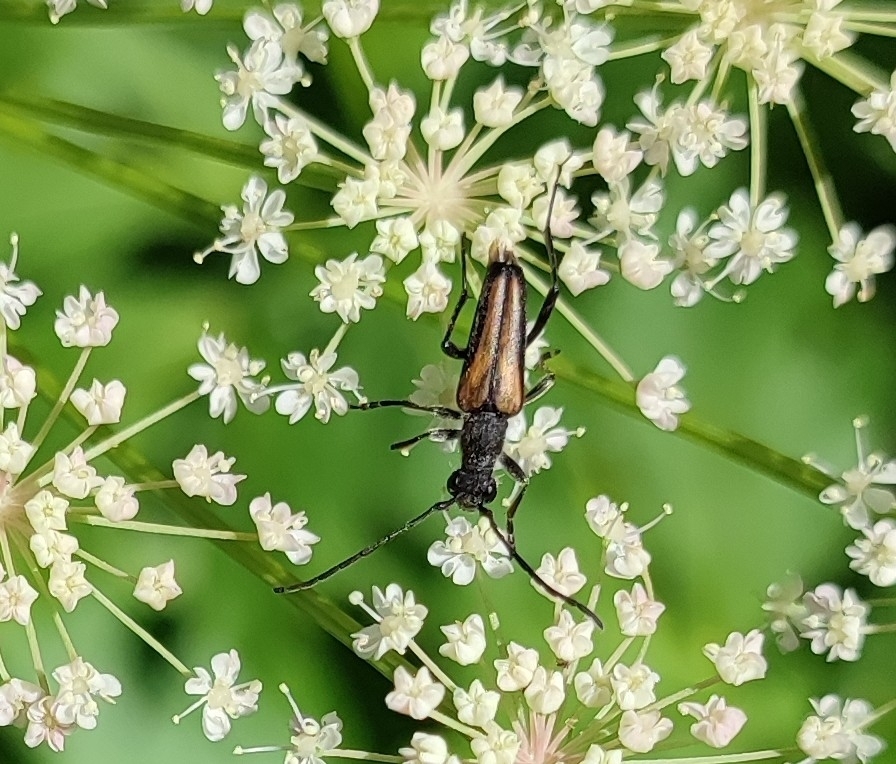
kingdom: Animalia
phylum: Arthropoda
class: Insecta
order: Coleoptera
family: Cerambycidae
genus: Anastrangalia
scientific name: Anastrangalia dubia
